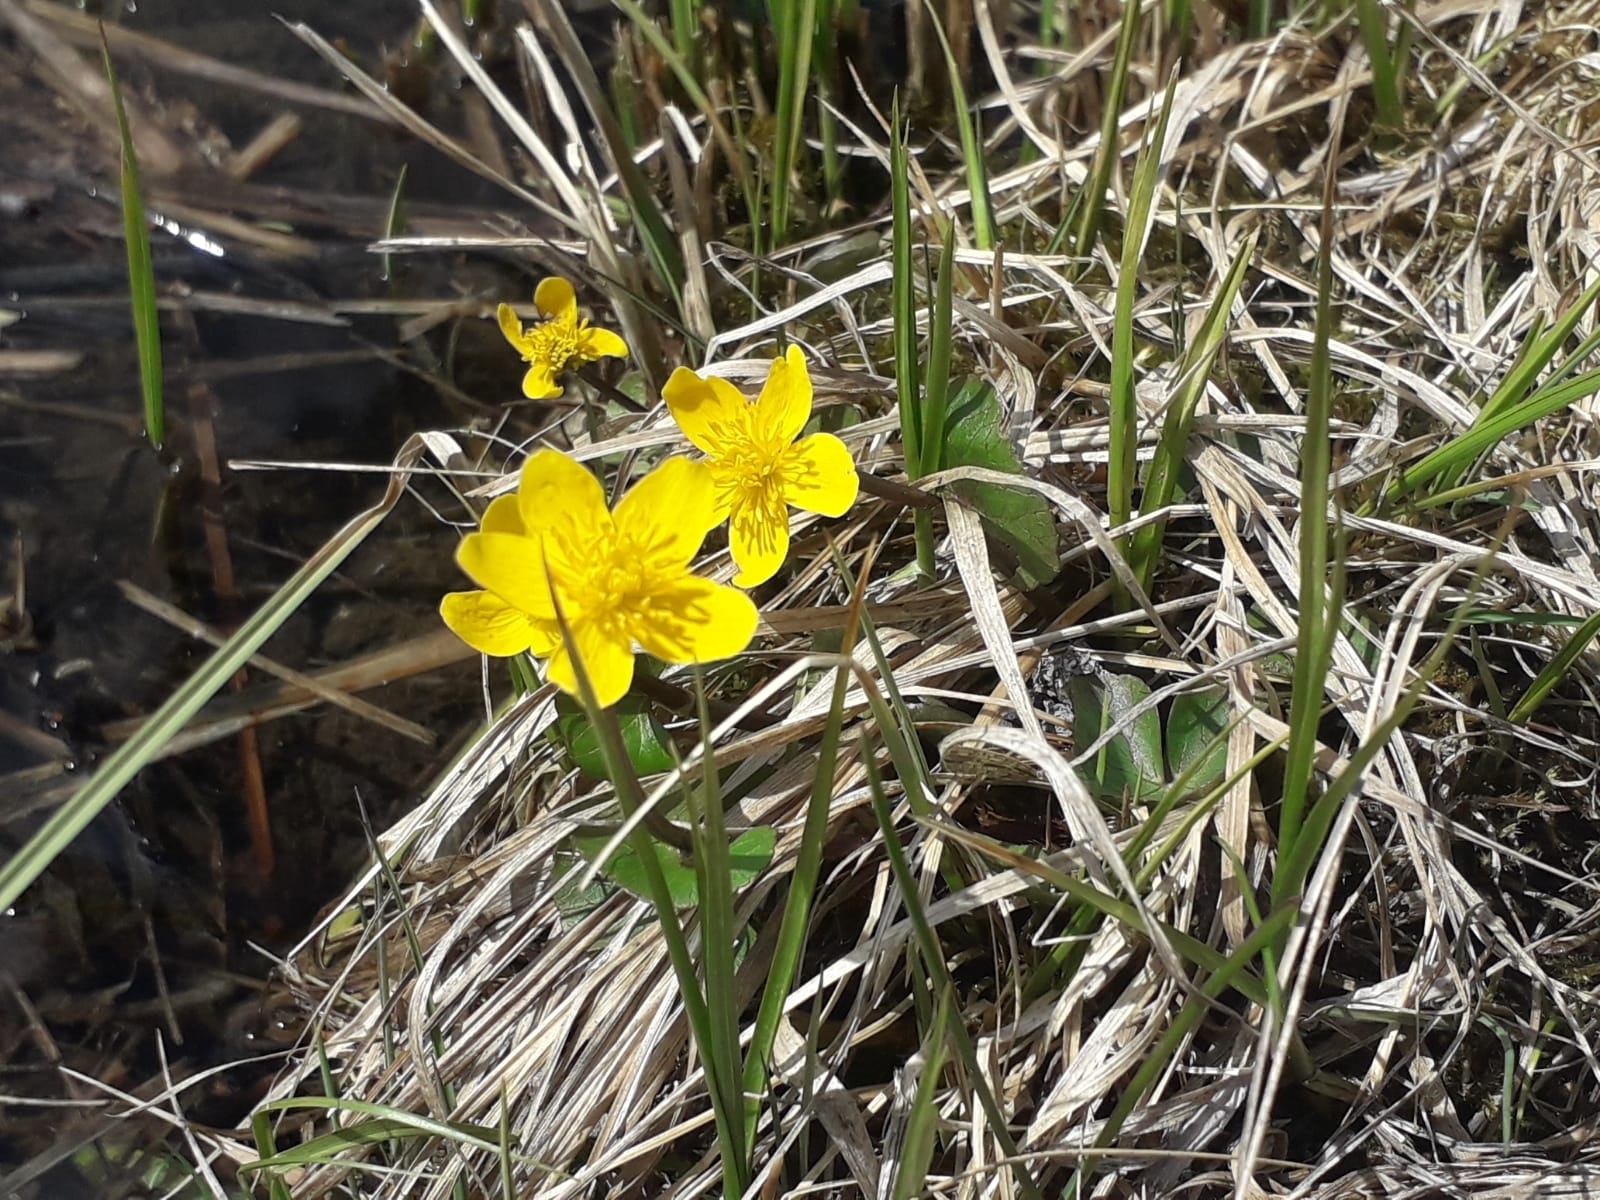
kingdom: Plantae
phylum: Tracheophyta
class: Magnoliopsida
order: Ranunculales
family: Ranunculaceae
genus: Caltha
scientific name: Caltha palustris
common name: Marsh marigold
